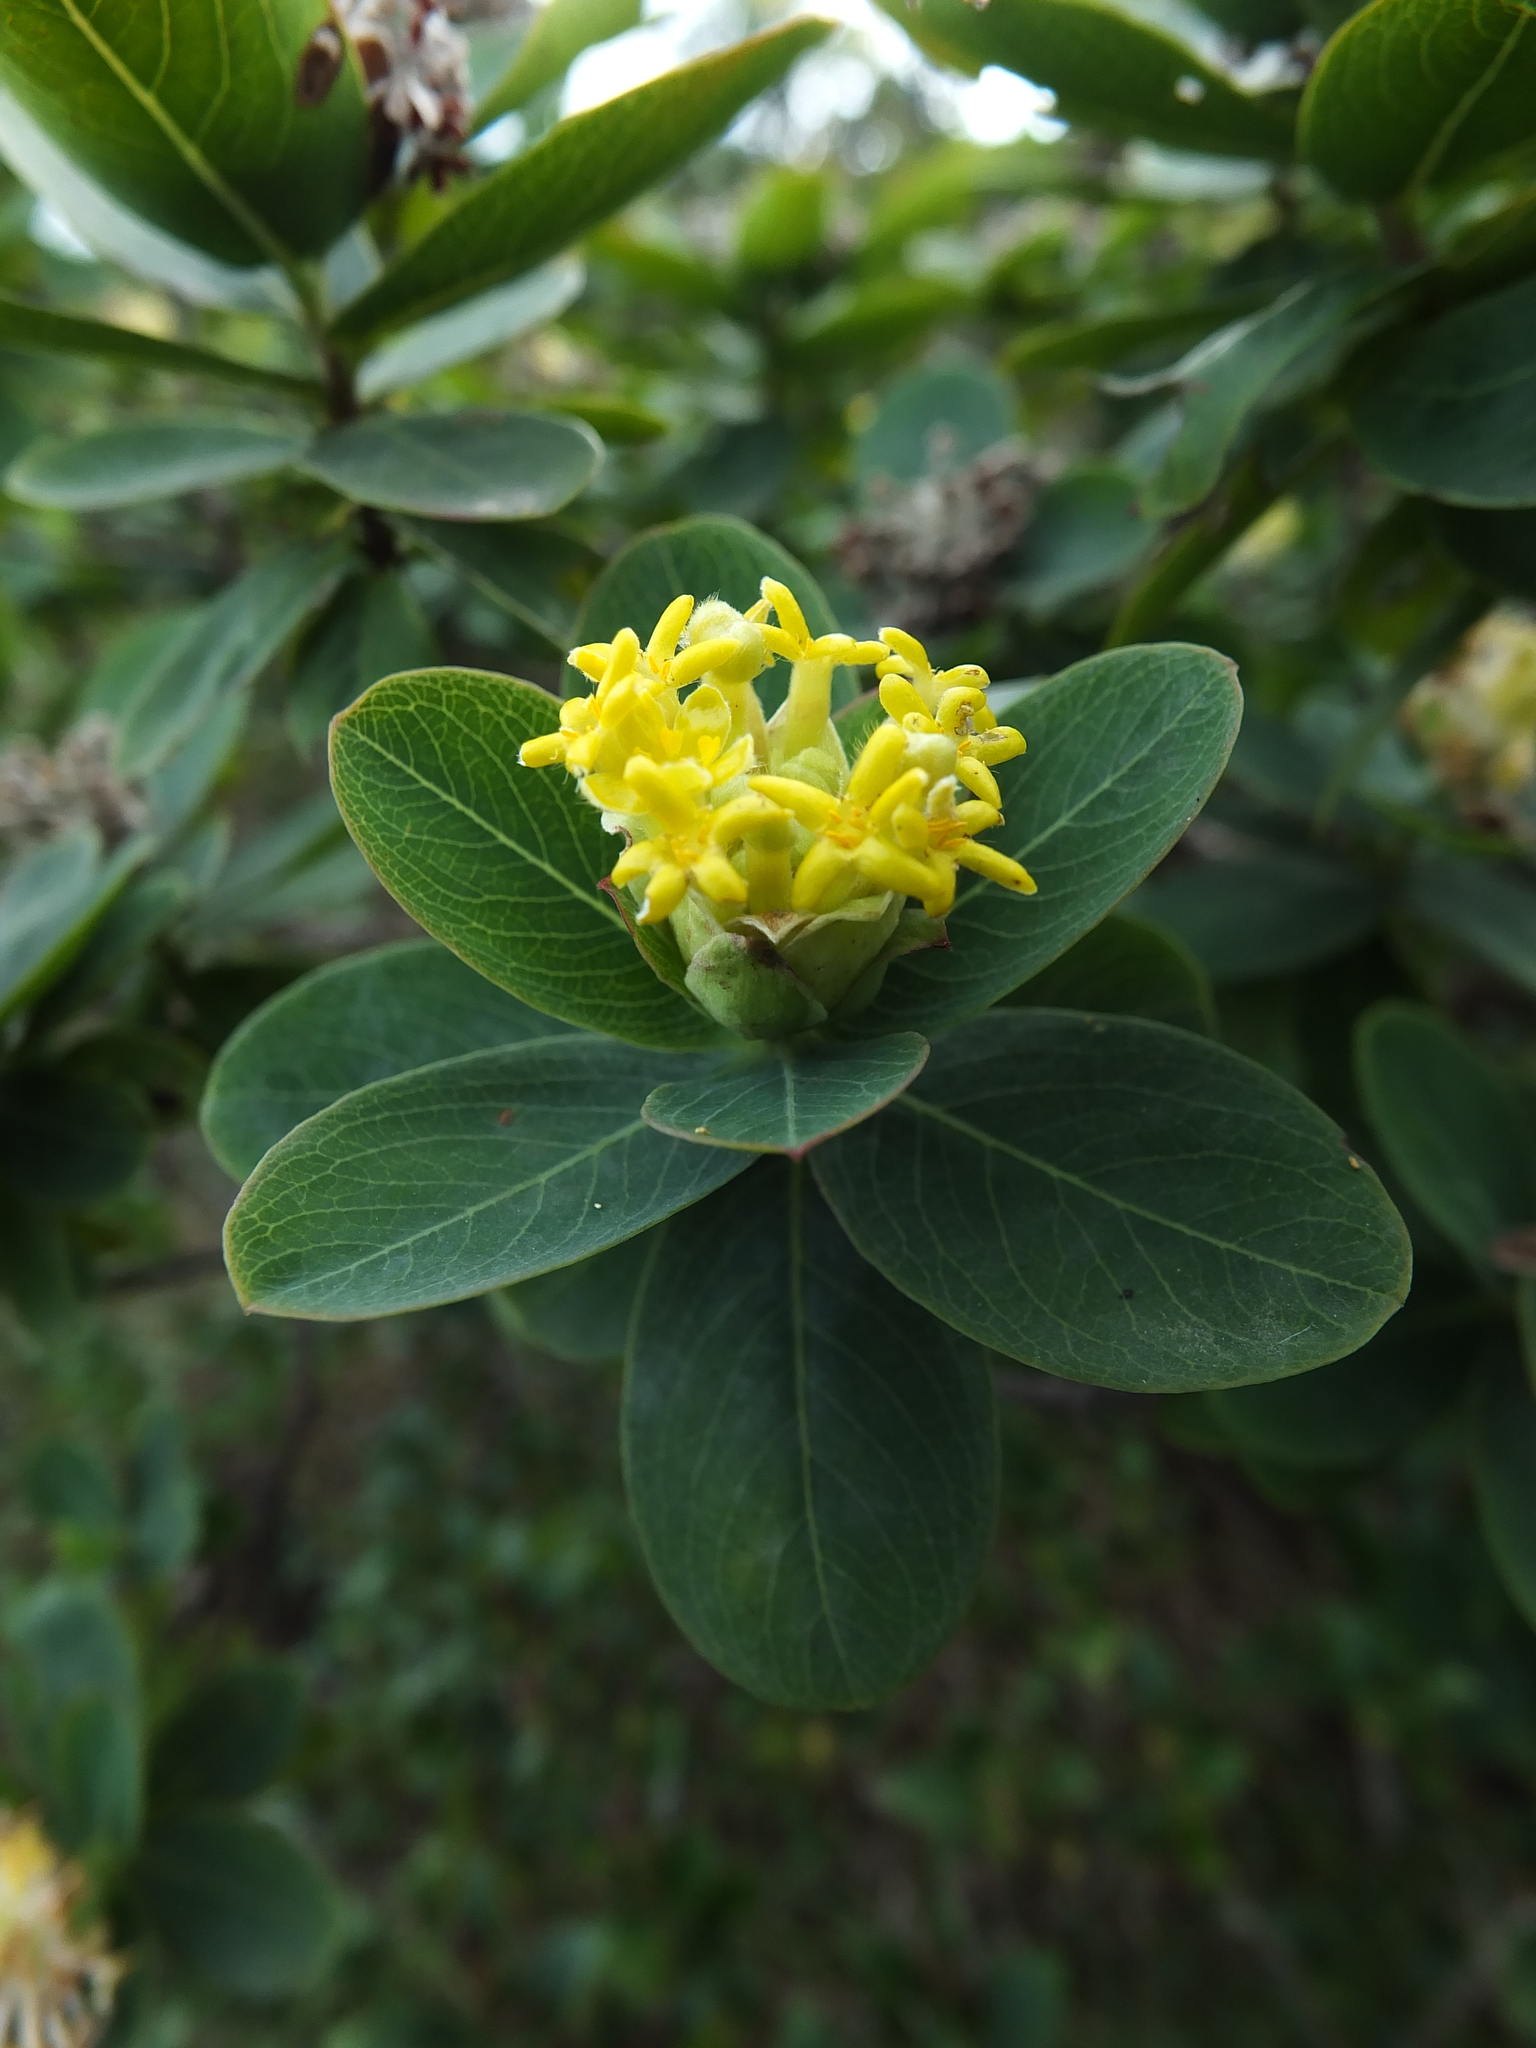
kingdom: Plantae
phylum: Tracheophyta
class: Magnoliopsida
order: Malvales
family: Thymelaeaceae
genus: Gnidia
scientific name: Gnidia glauca
